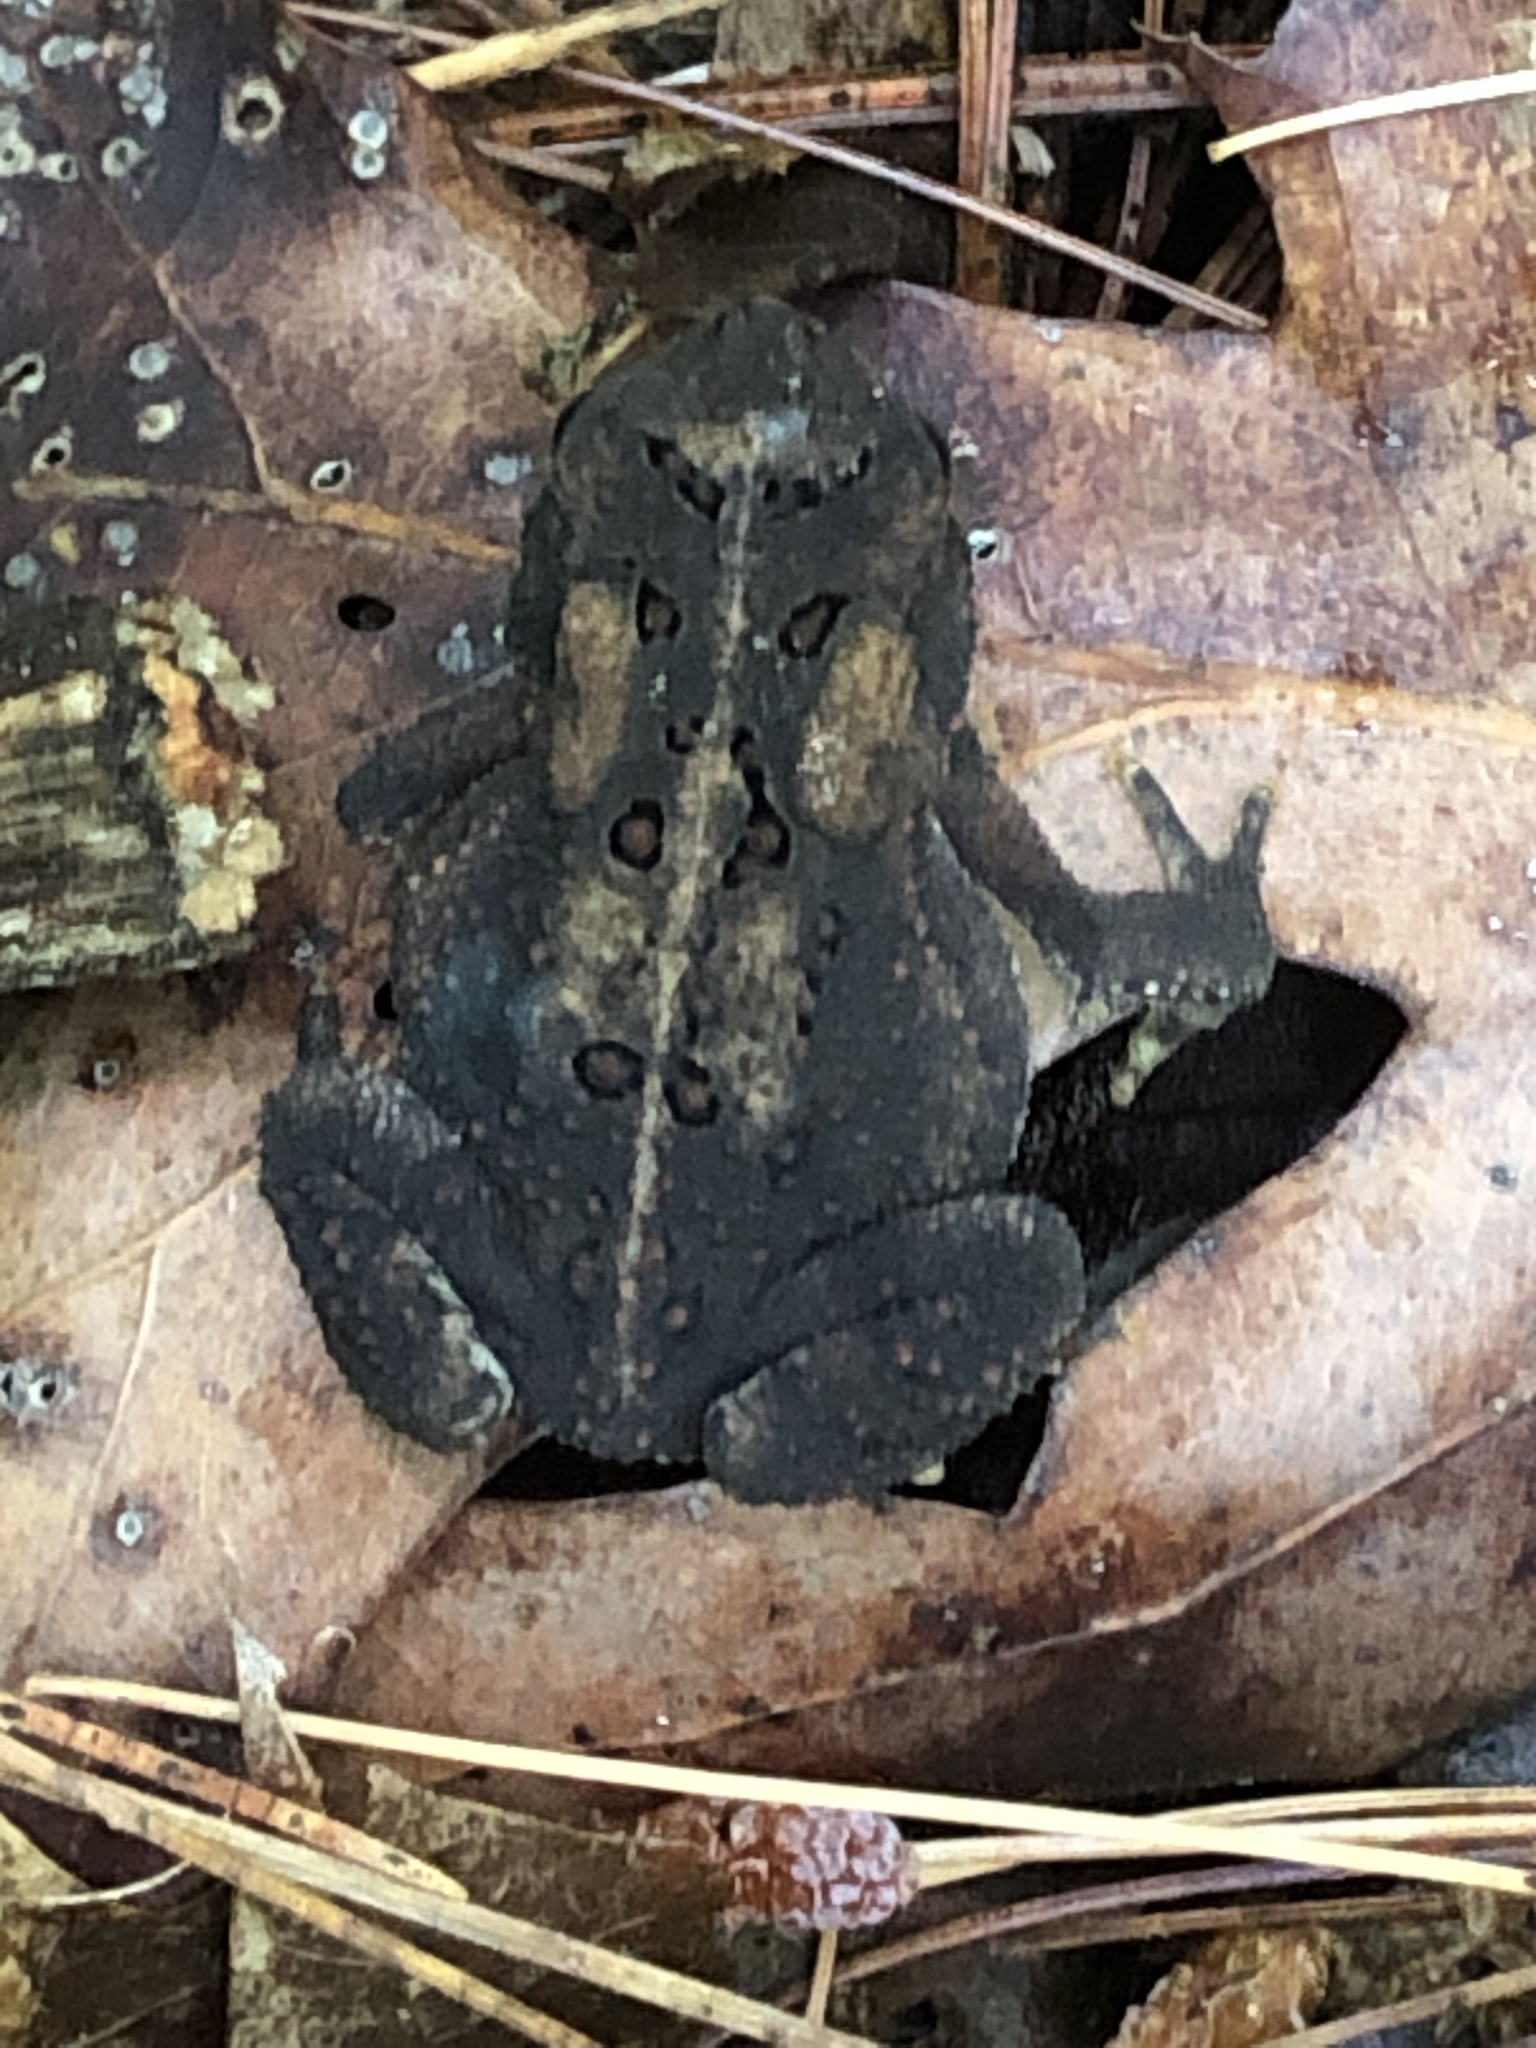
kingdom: Animalia
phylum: Chordata
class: Amphibia
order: Anura
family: Bufonidae
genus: Anaxyrus
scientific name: Anaxyrus americanus
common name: American toad
